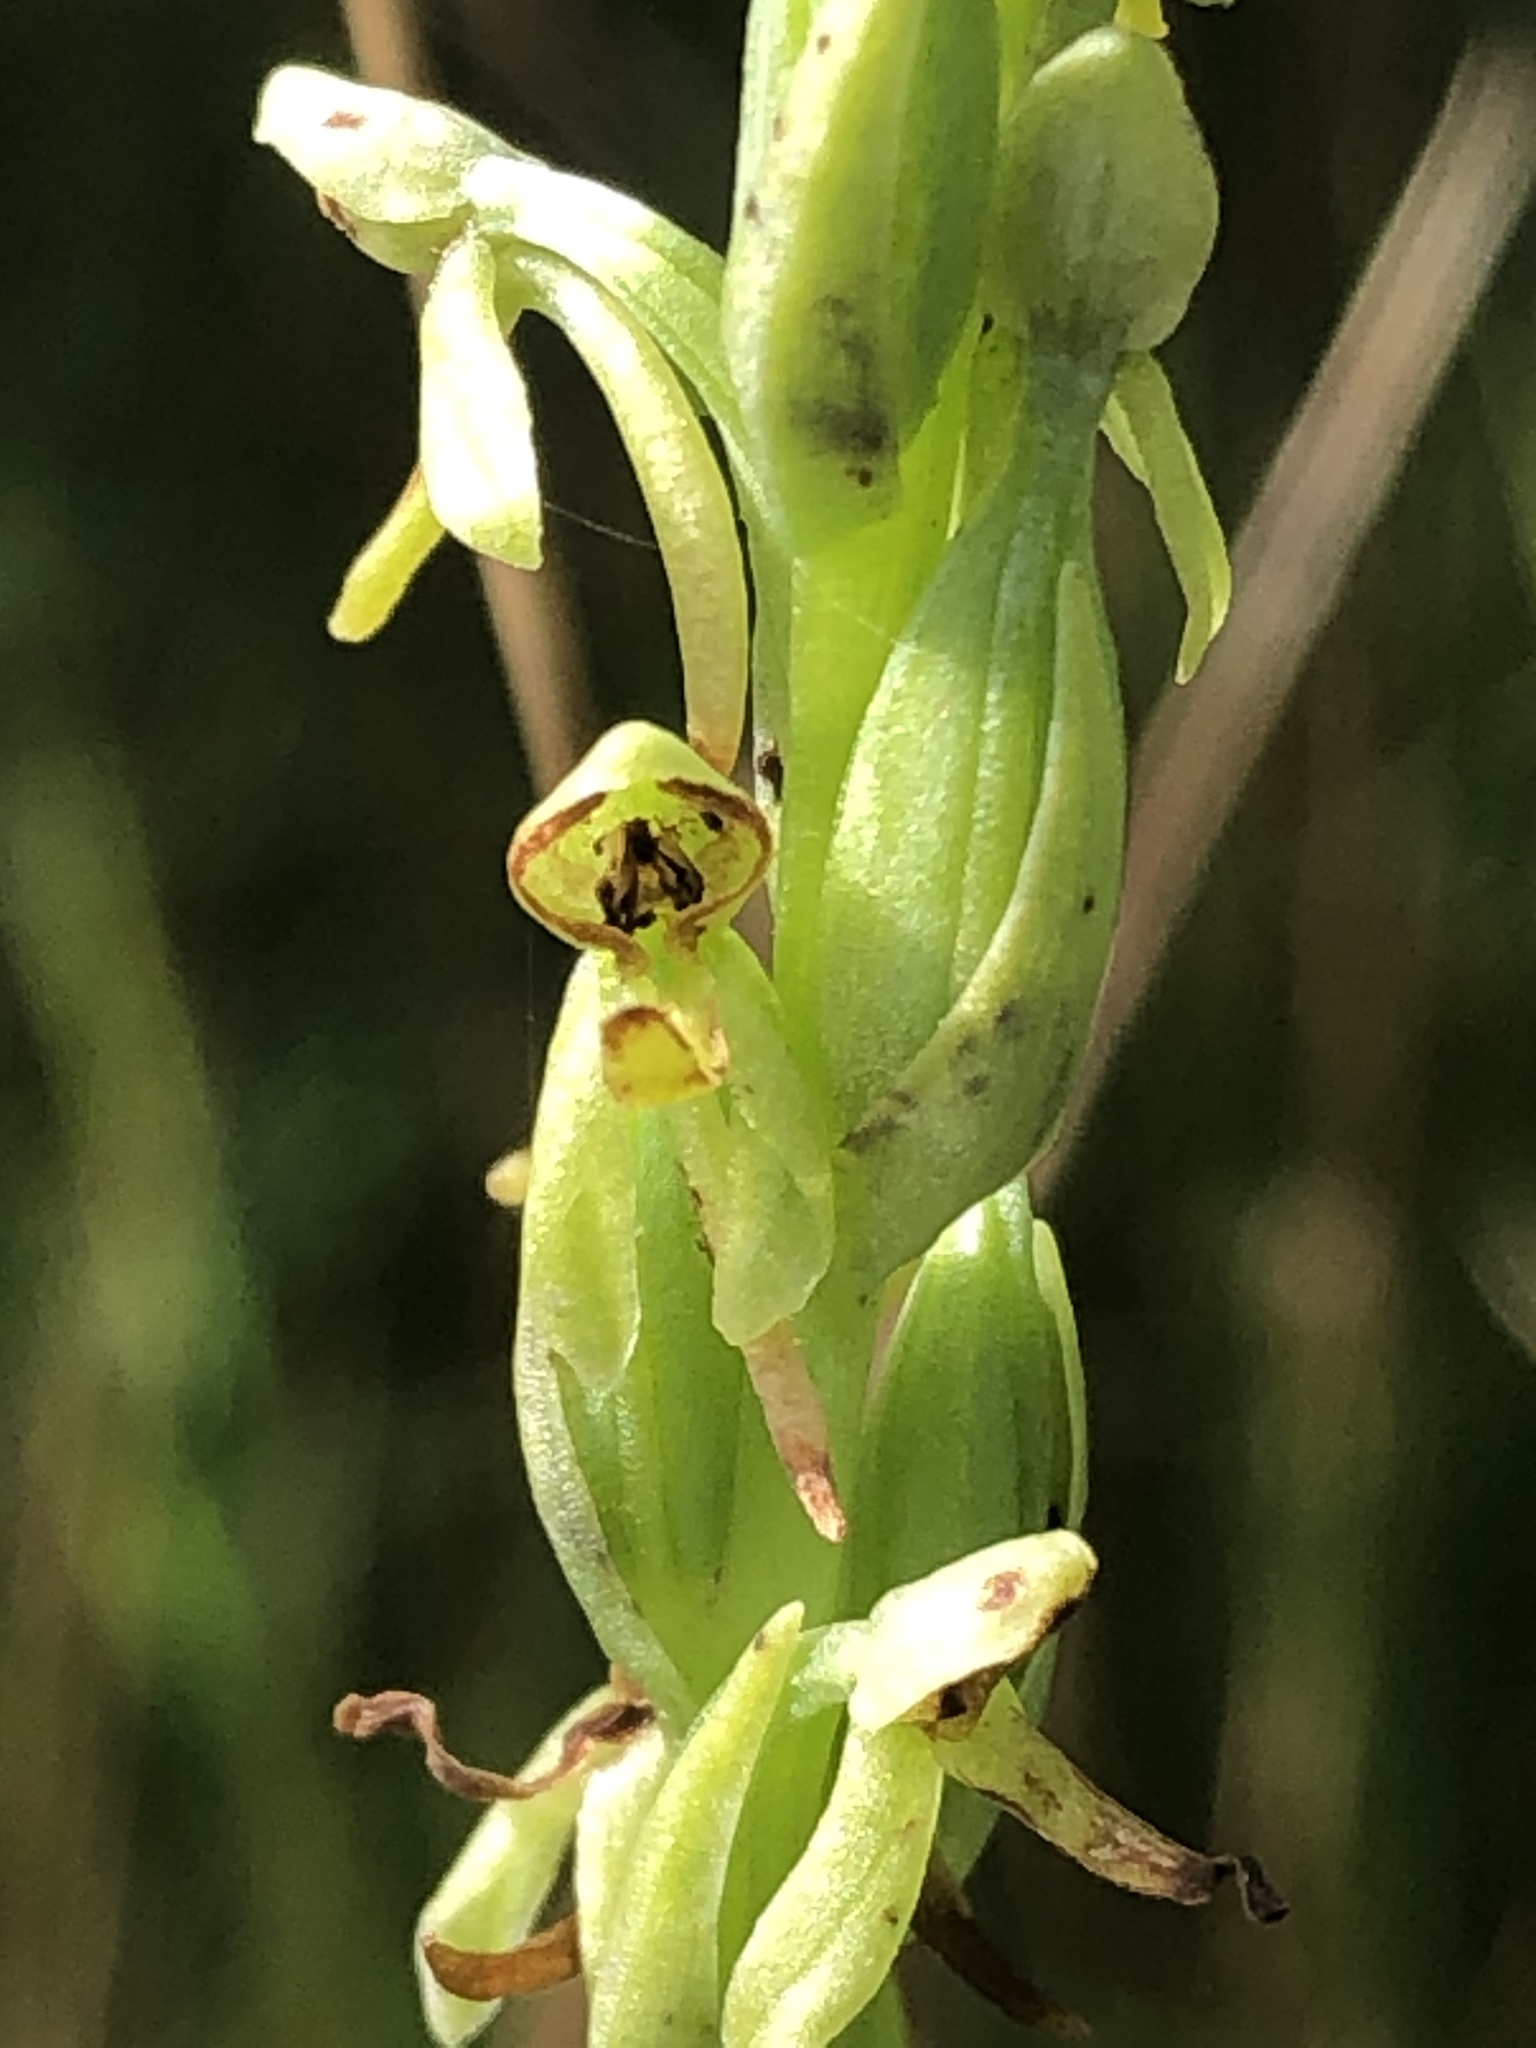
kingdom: Plantae
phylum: Tracheophyta
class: Liliopsida
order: Asparagales
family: Orchidaceae
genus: Platanthera
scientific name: Platanthera sparsiflora
